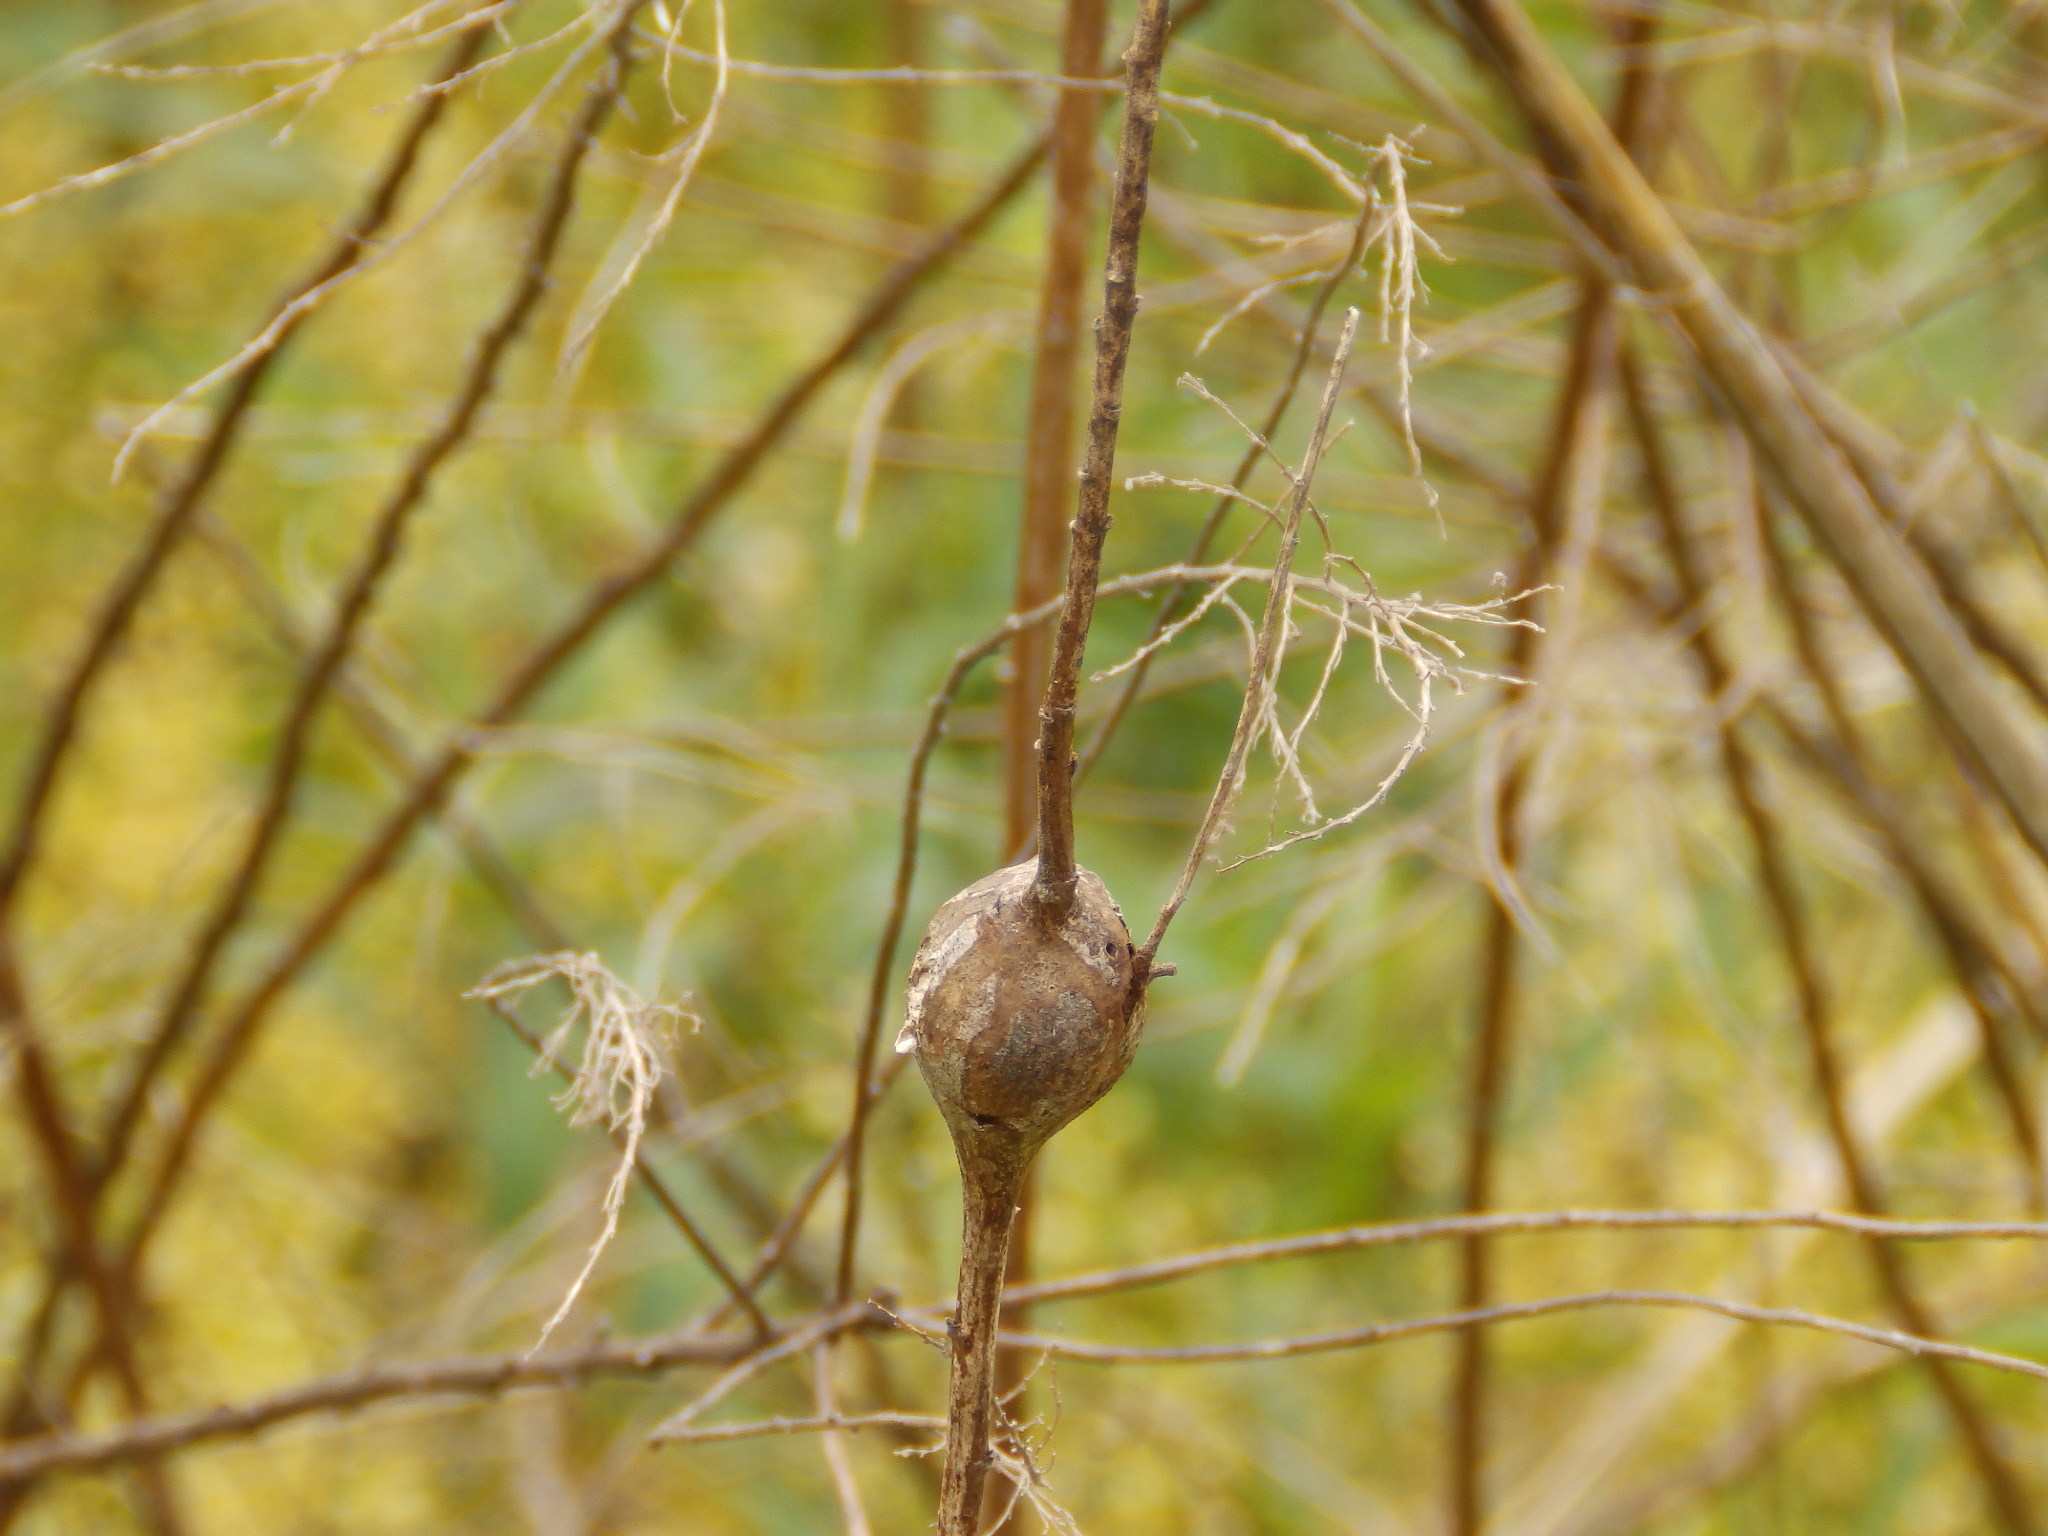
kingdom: Animalia
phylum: Arthropoda
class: Insecta
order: Diptera
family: Tephritidae
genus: Eurosta
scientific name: Eurosta solidaginis
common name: Goldenrod gall fly
